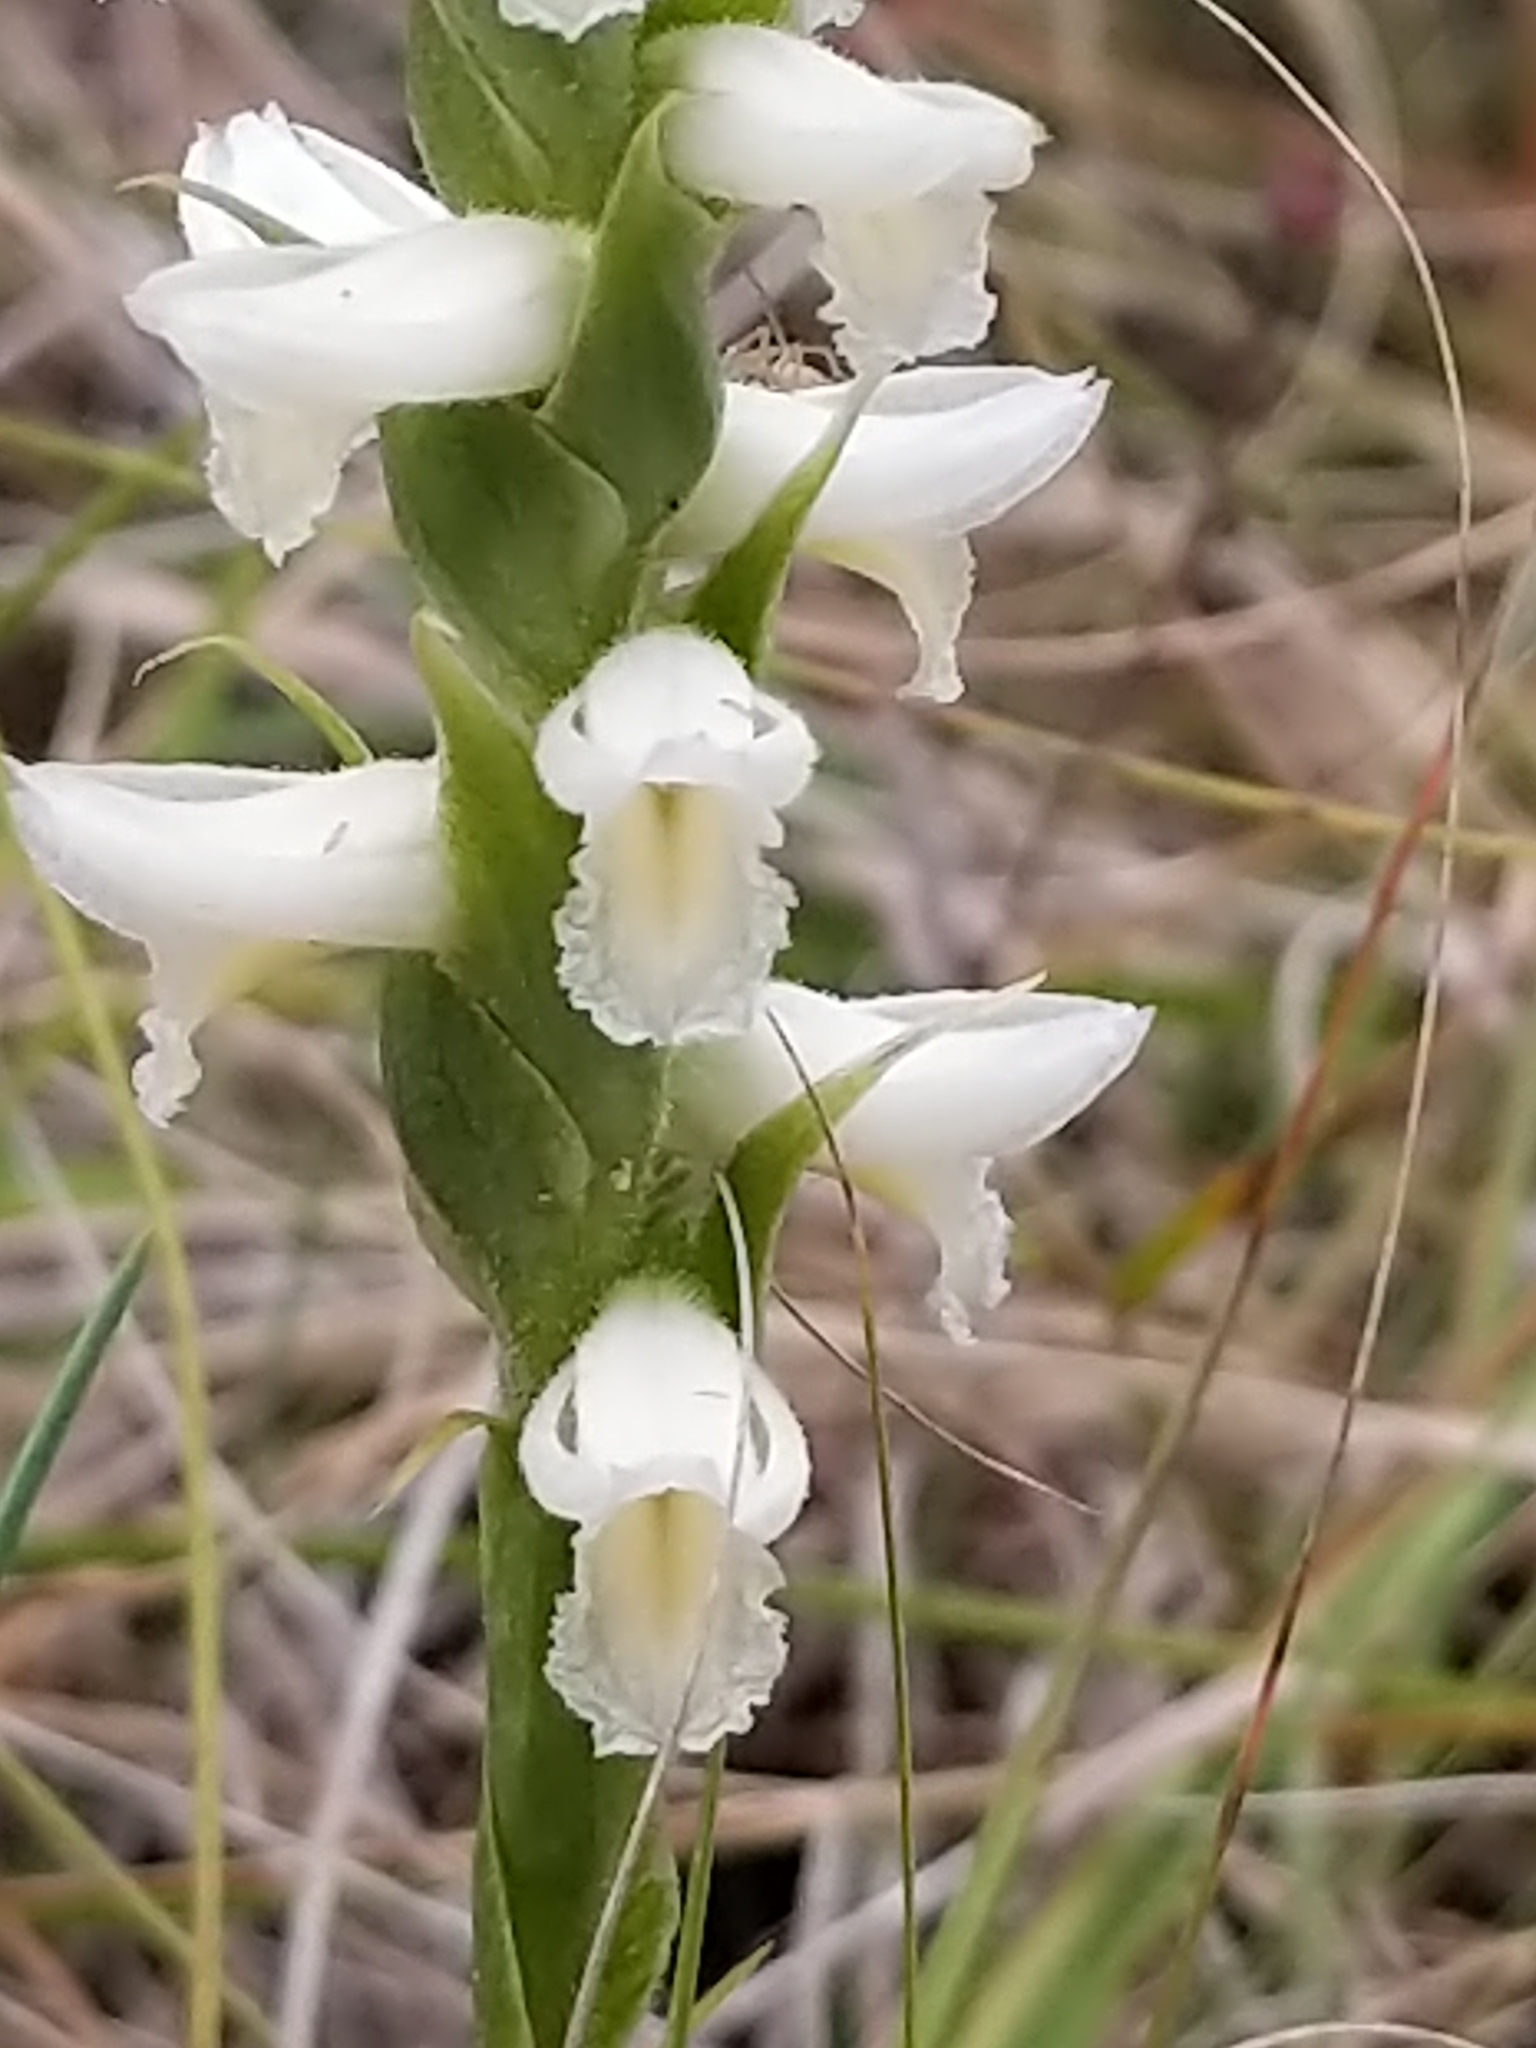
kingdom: Plantae
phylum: Tracheophyta
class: Liliopsida
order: Asparagales
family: Orchidaceae
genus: Spiranthes
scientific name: Spiranthes magnicamporum
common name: Great plains ladies'-tresses
